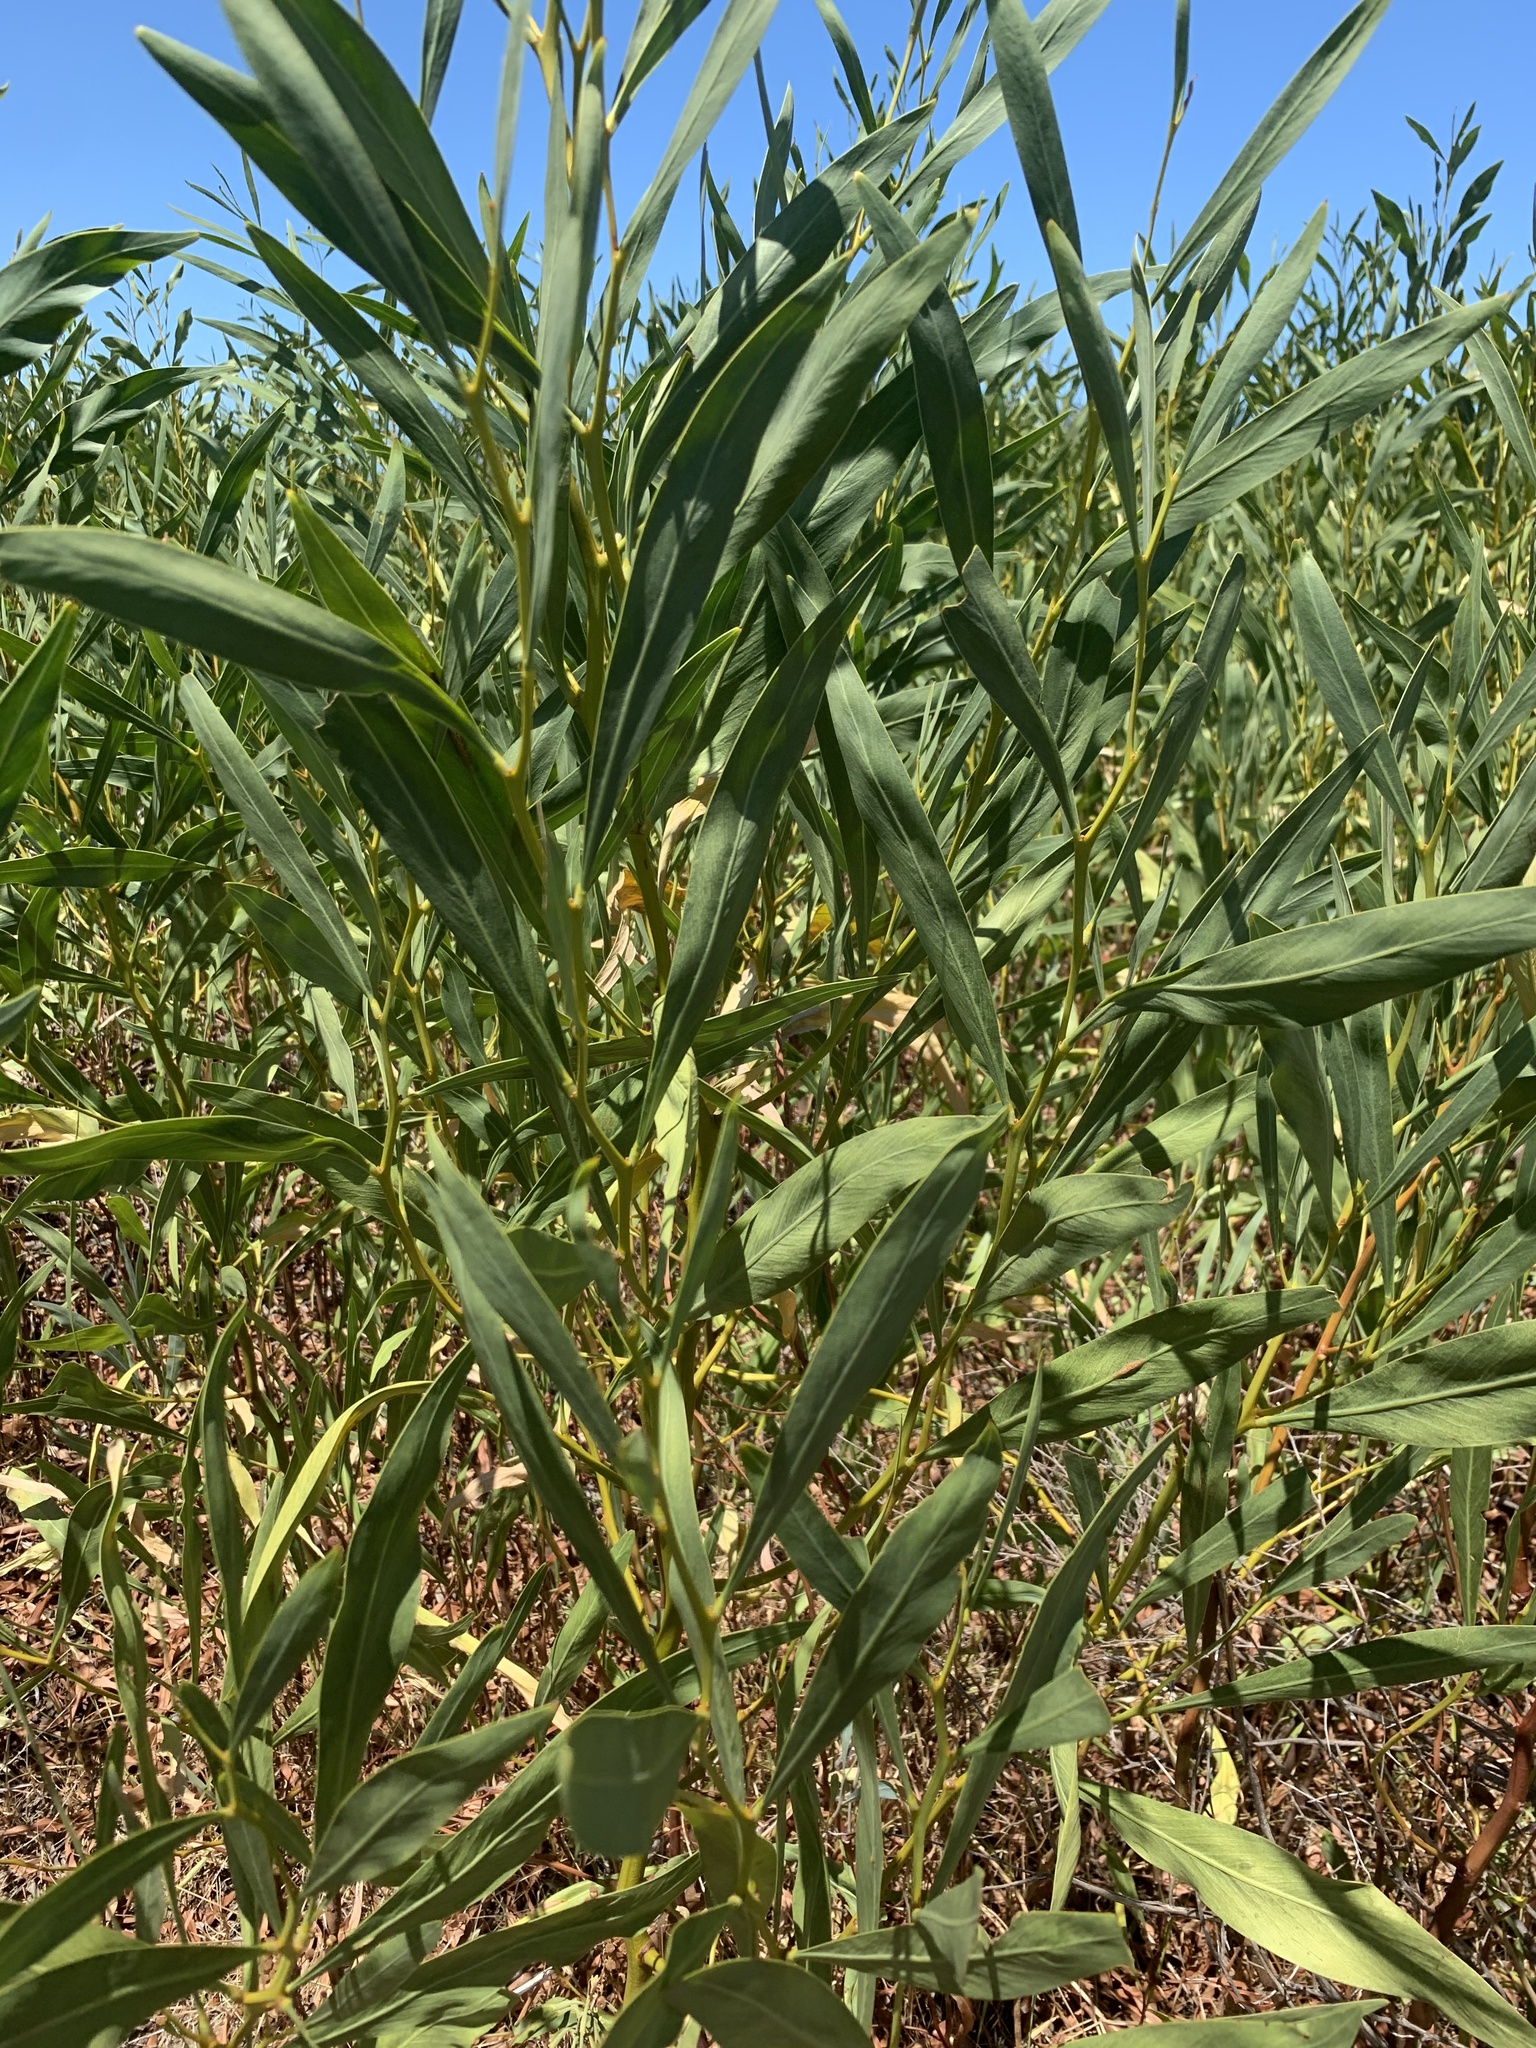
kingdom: Plantae
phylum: Tracheophyta
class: Magnoliopsida
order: Fabales
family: Fabaceae
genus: Acacia
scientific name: Acacia saligna
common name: Orange wattle
